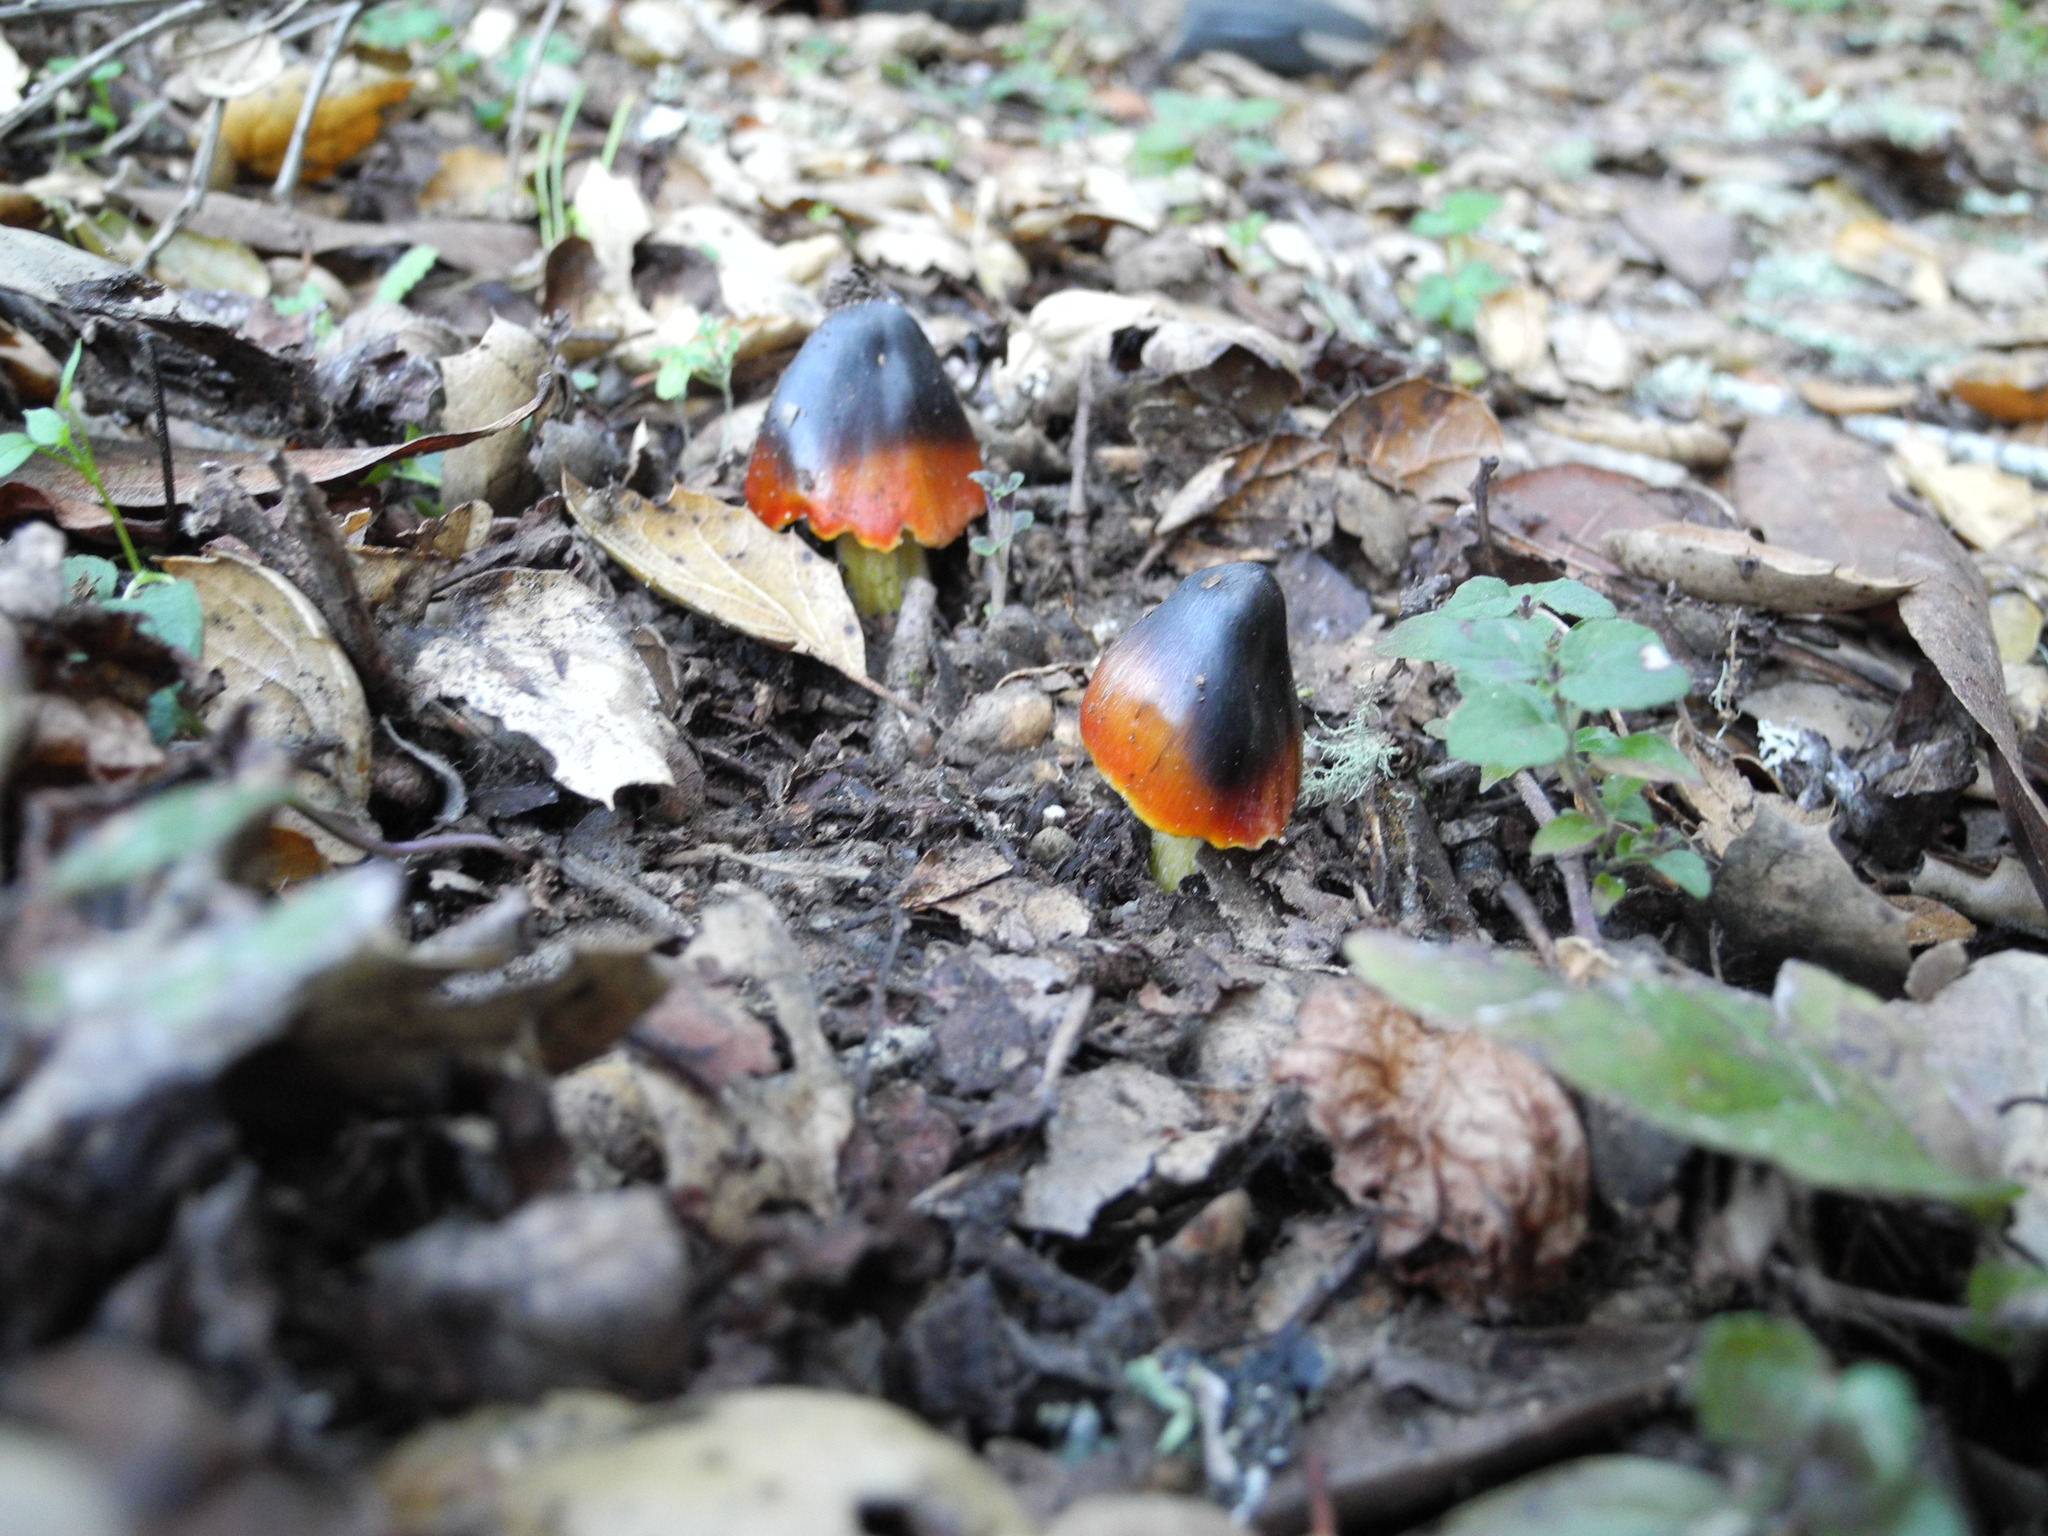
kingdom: Fungi
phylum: Basidiomycota
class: Agaricomycetes
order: Agaricales
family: Hygrophoraceae
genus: Hygrocybe
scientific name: Hygrocybe conica
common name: Blackening wax-cap
